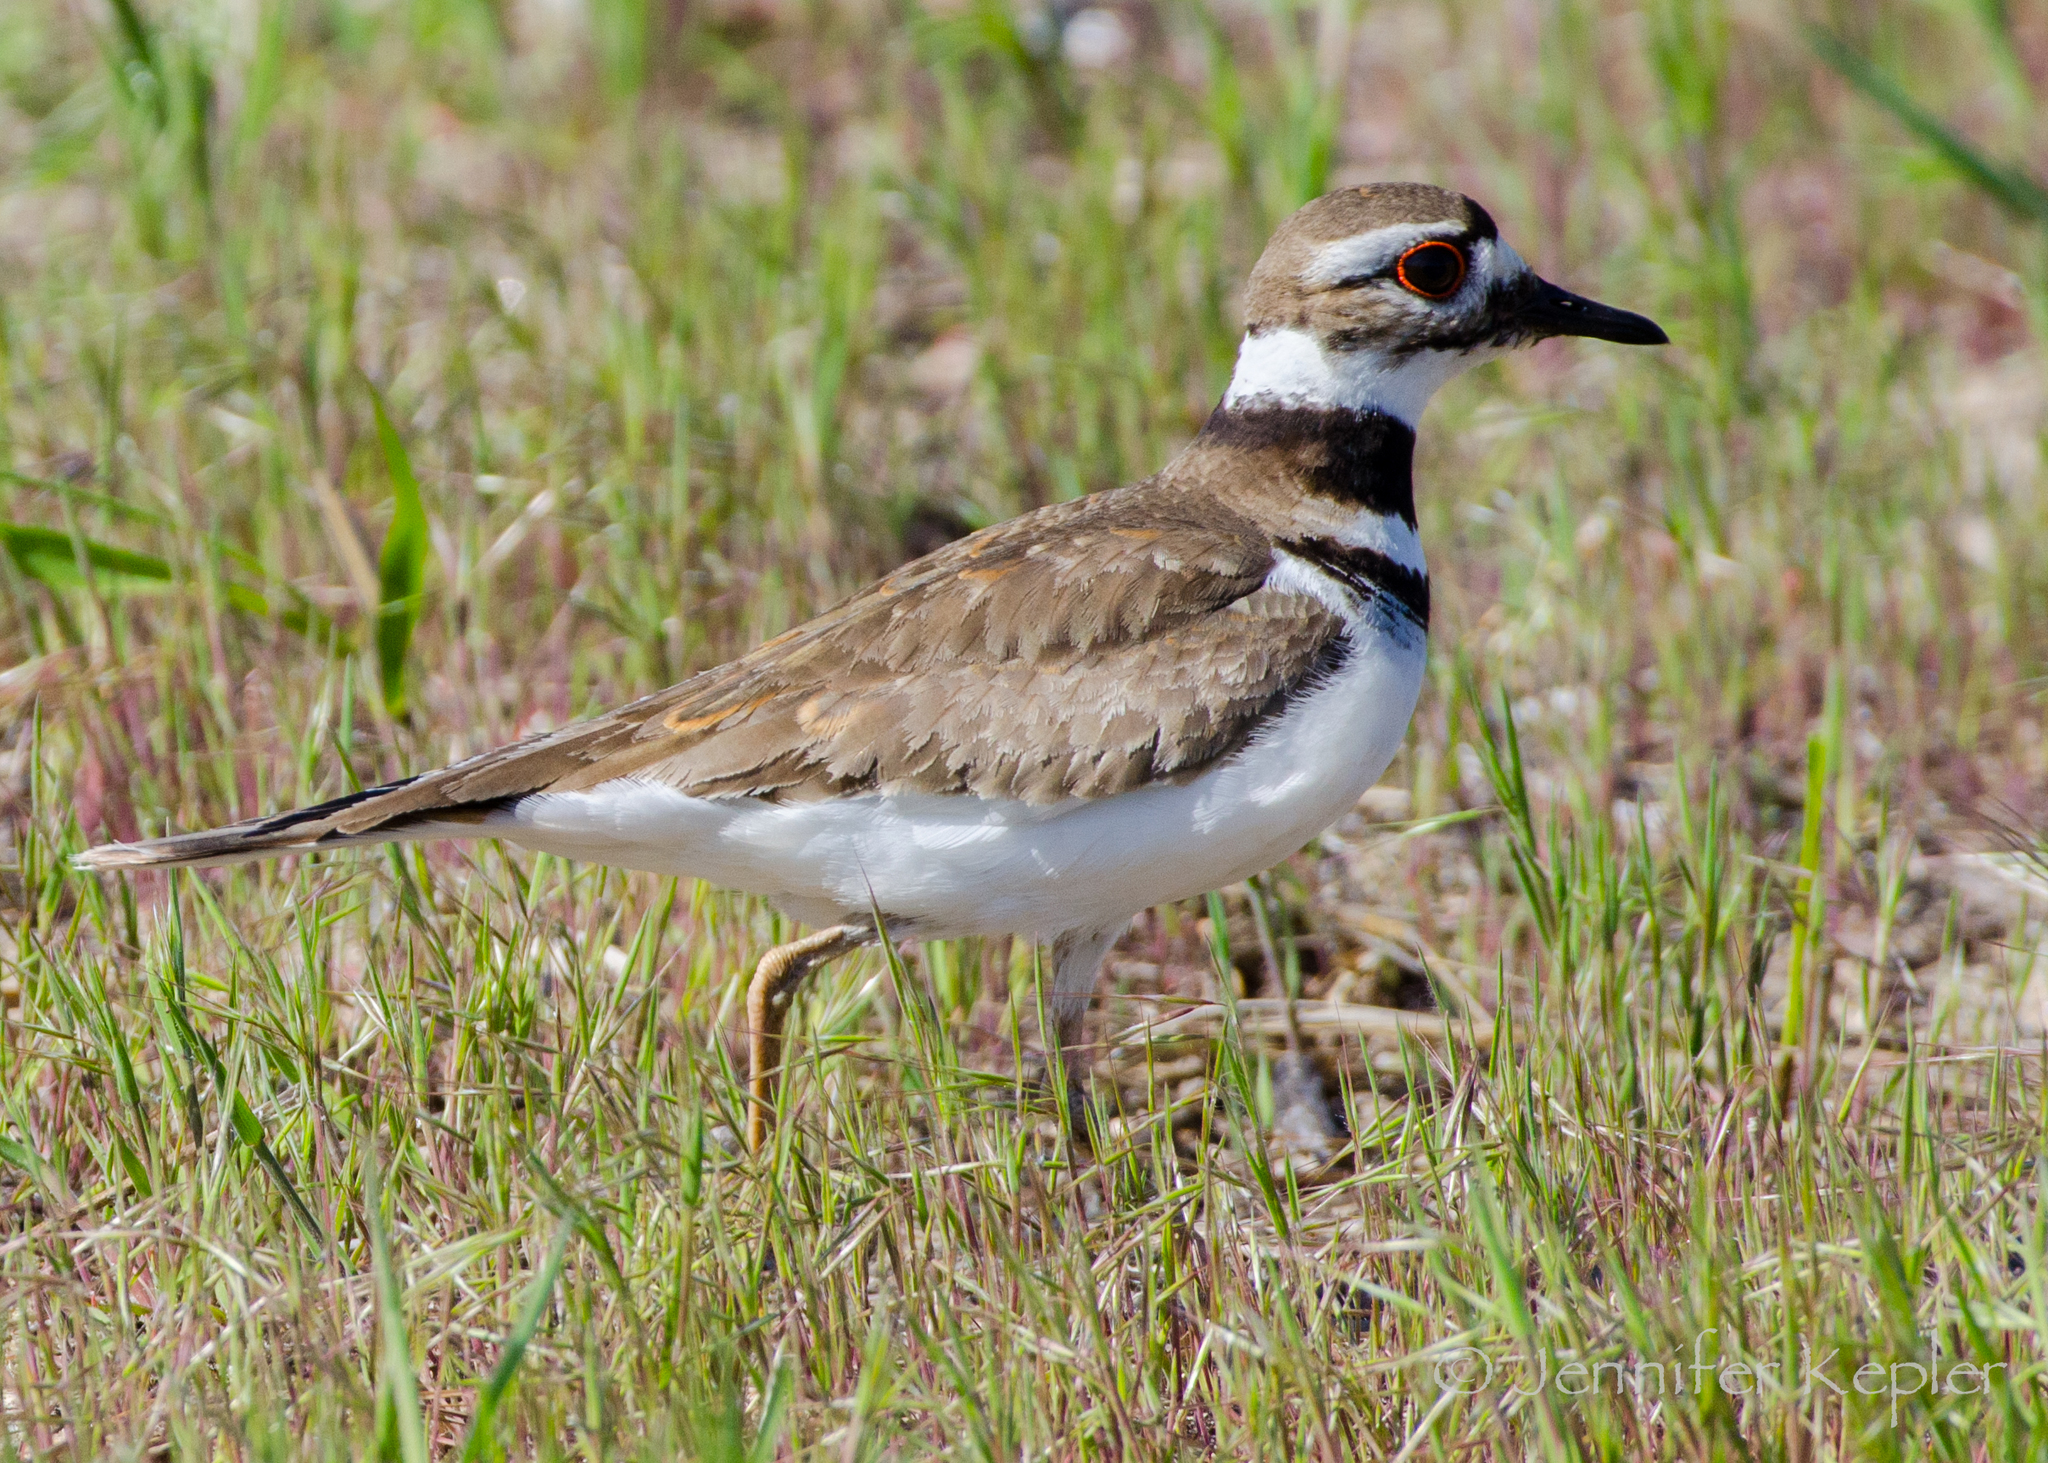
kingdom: Animalia
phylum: Chordata
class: Aves
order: Charadriiformes
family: Charadriidae
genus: Charadrius
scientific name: Charadrius vociferus
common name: Killdeer
